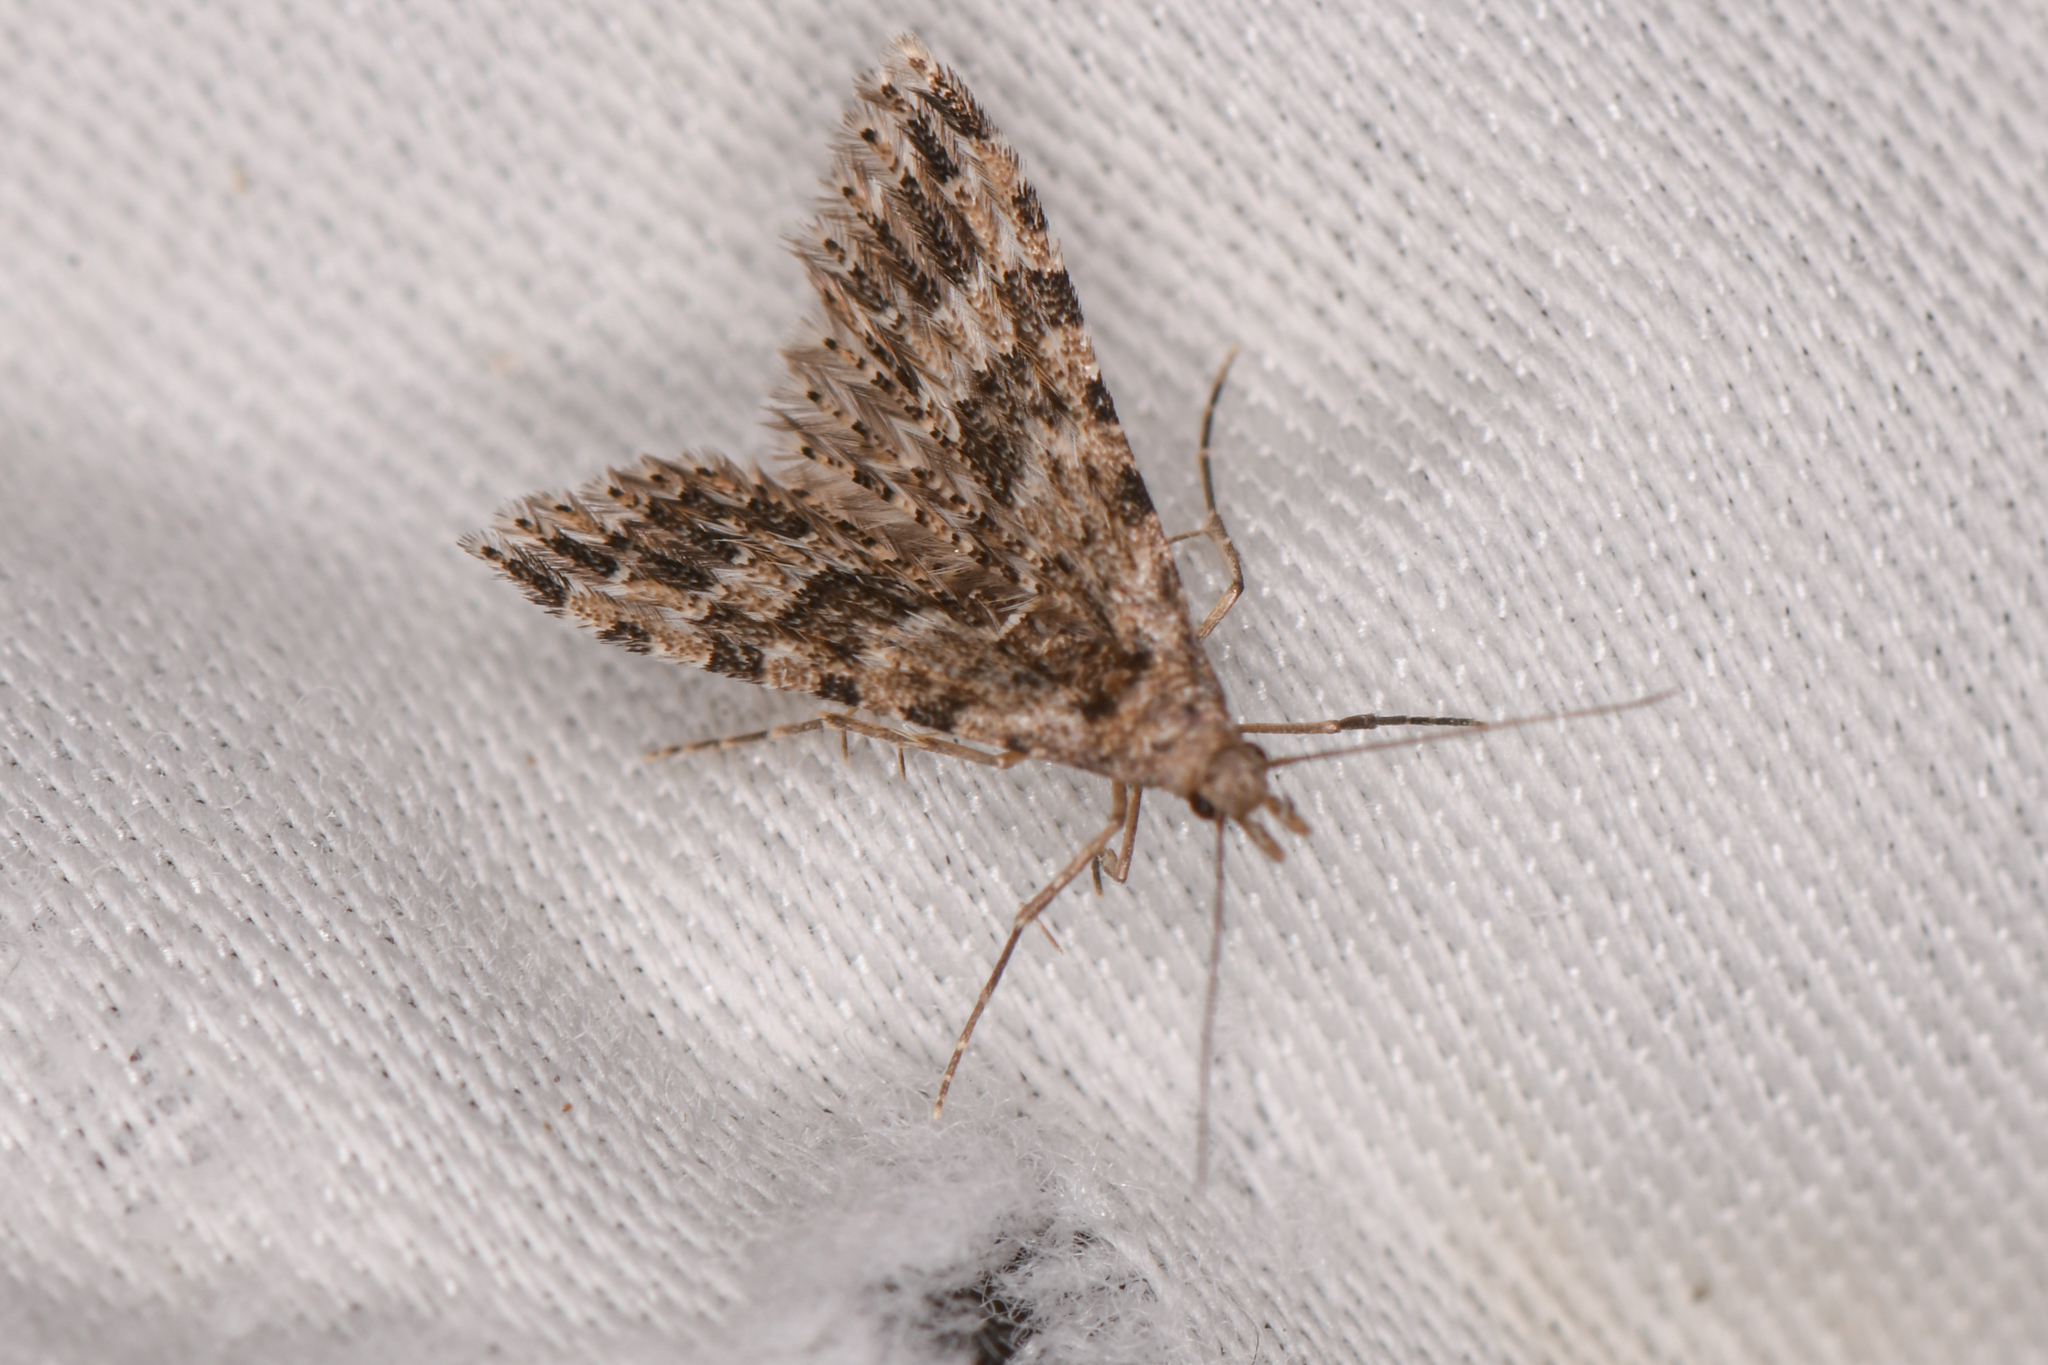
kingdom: Animalia
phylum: Arthropoda
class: Insecta
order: Lepidoptera
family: Alucitidae
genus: Alucita
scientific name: Alucita montana
